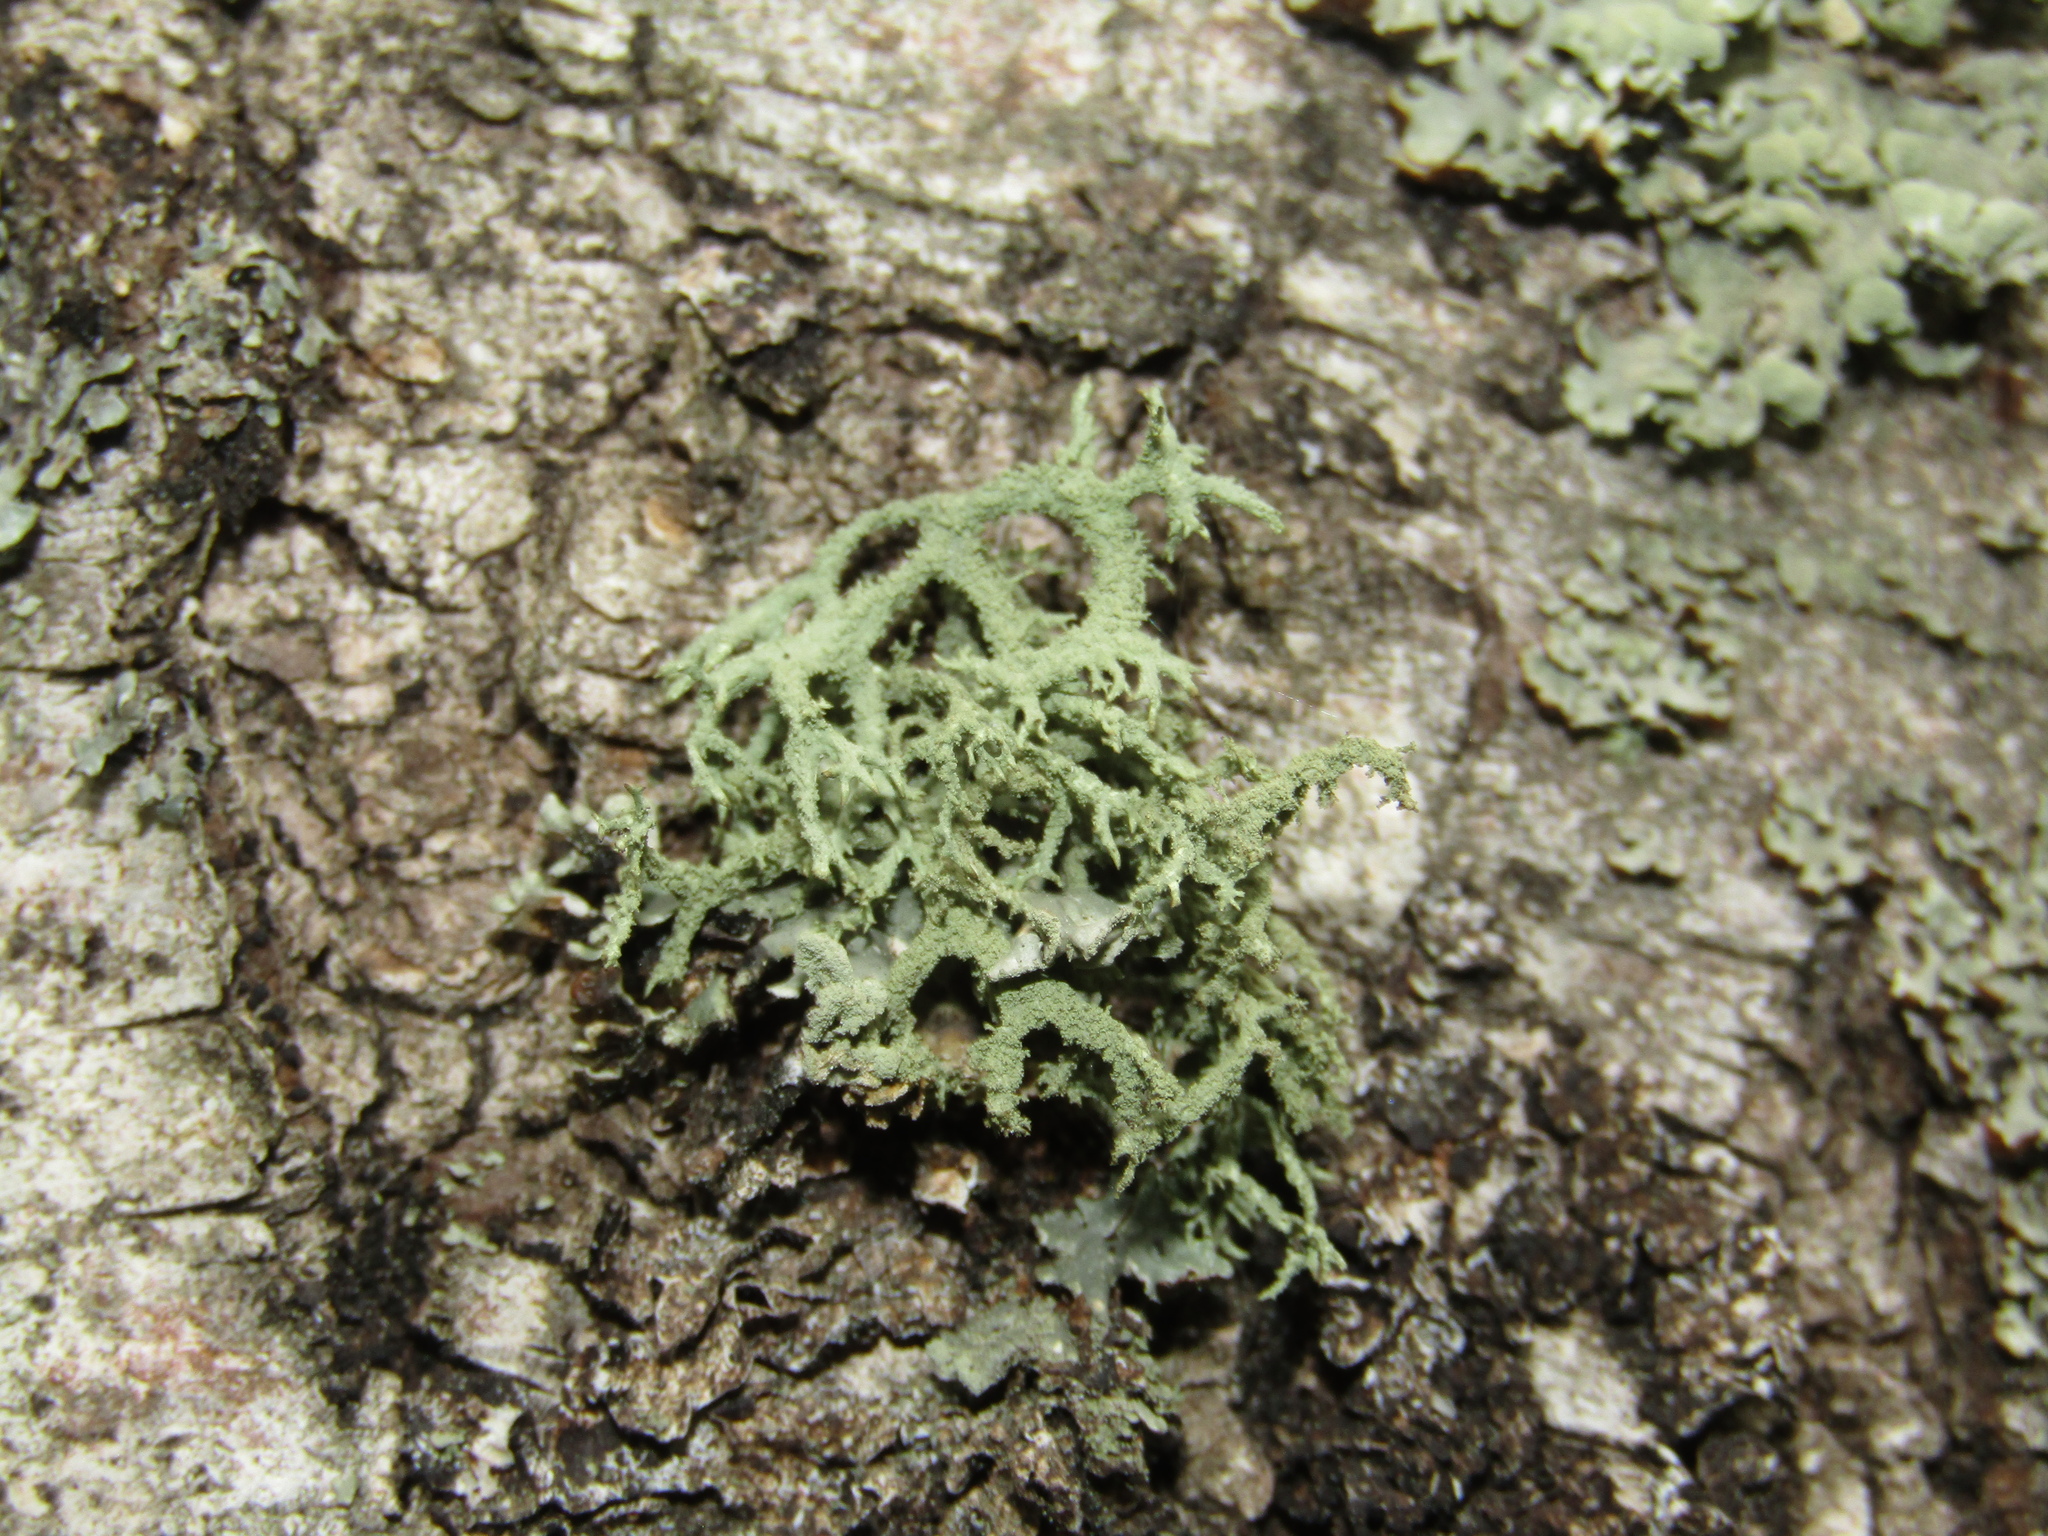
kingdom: Fungi
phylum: Ascomycota
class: Lecanoromycetes
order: Lecanorales
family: Parmeliaceae
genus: Evernia
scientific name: Evernia mesomorpha
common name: Boreal oak moss lichen
